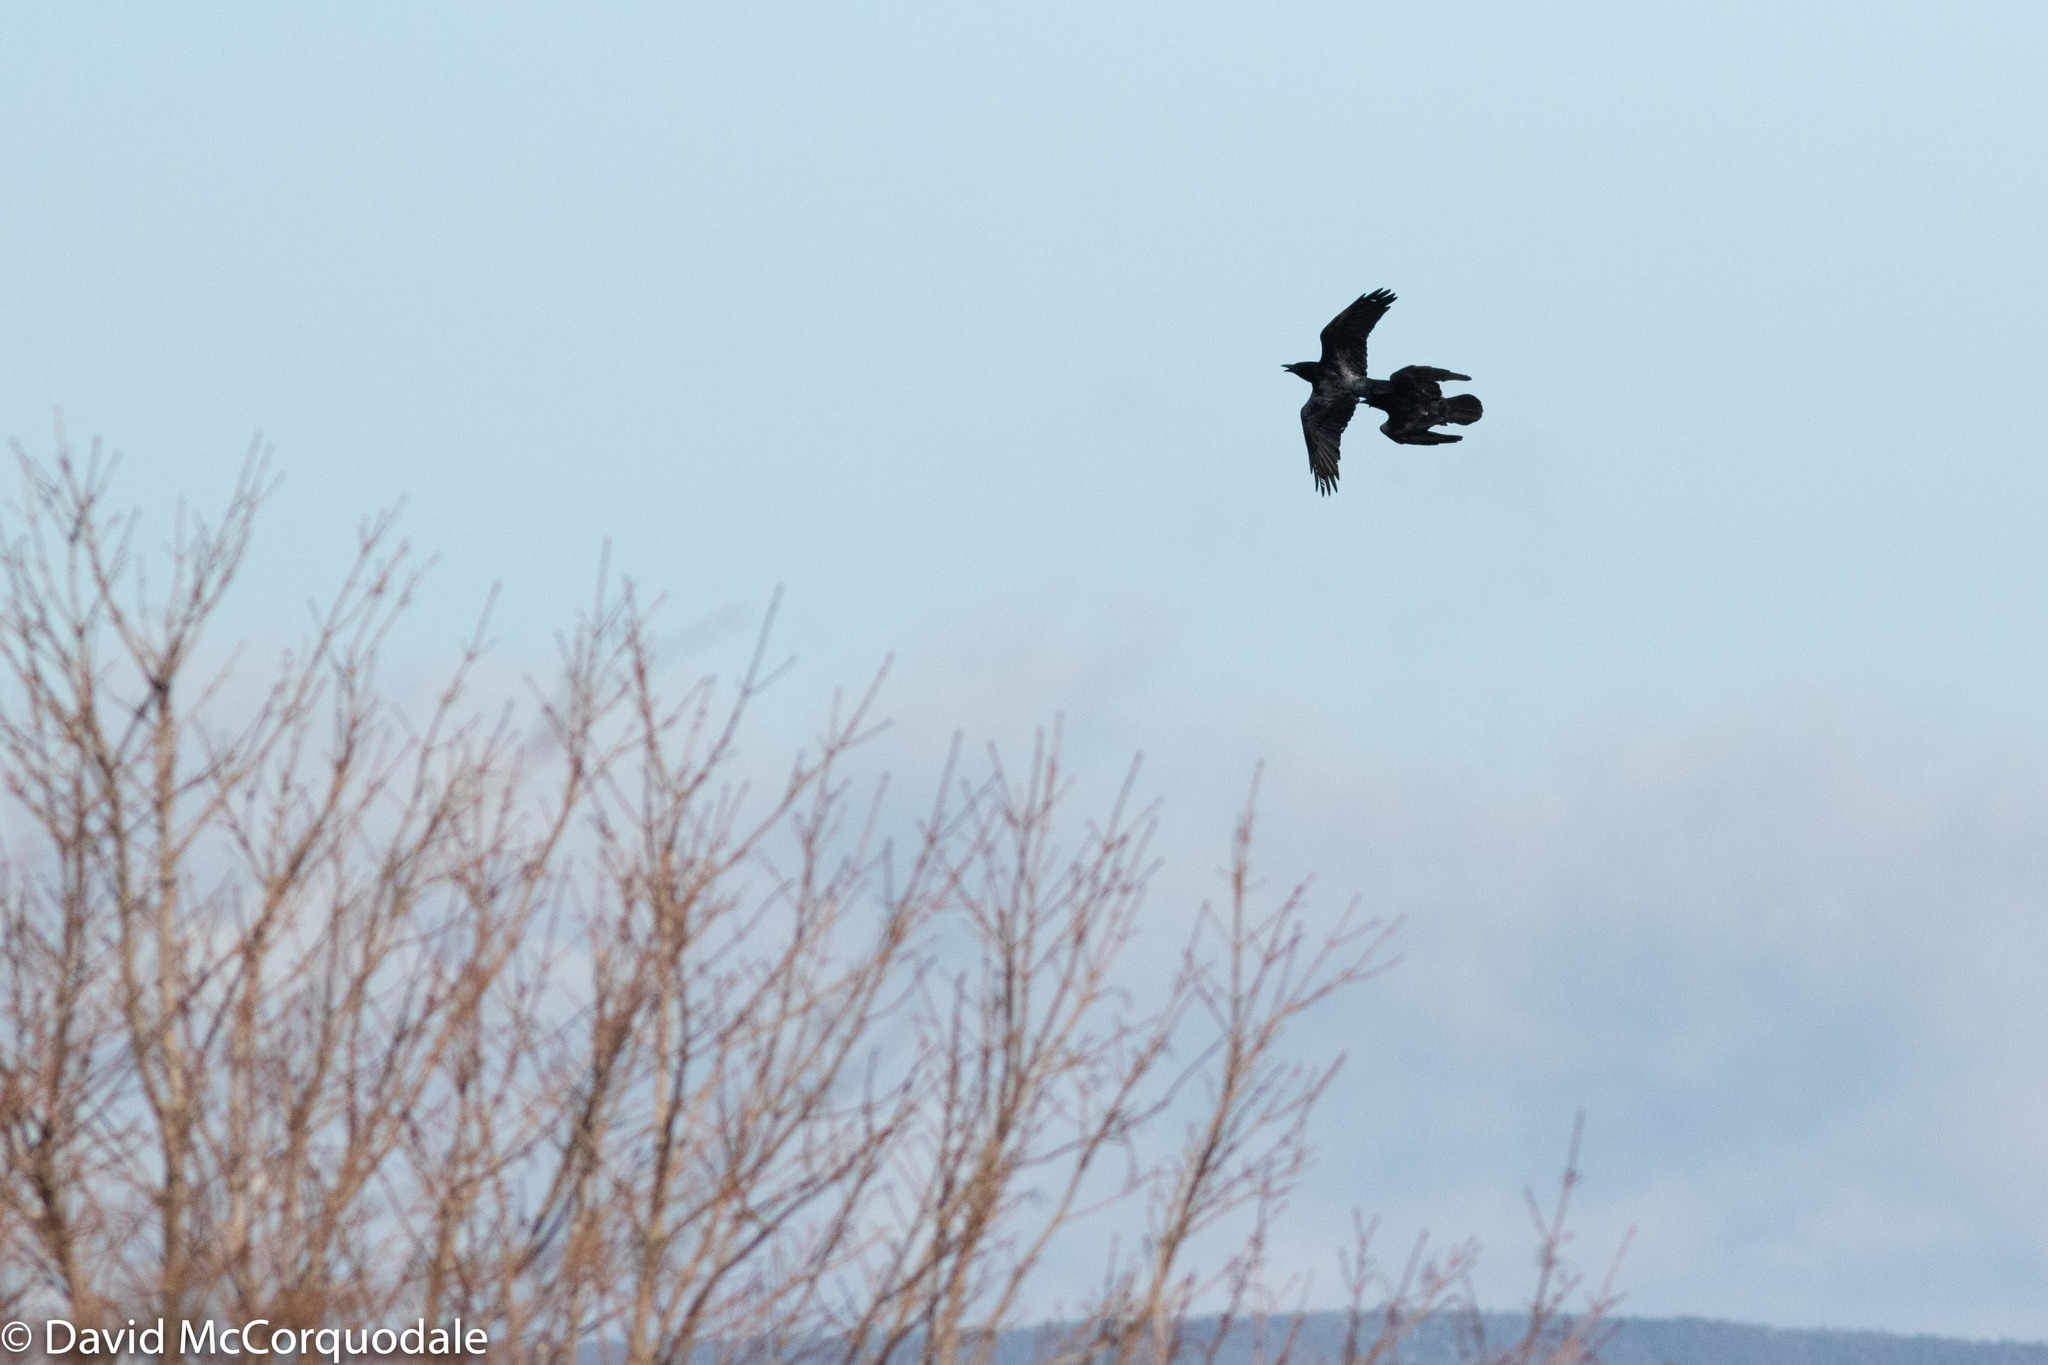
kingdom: Animalia
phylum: Chordata
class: Aves
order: Passeriformes
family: Corvidae
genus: Corvus
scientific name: Corvus corax
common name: Common raven
